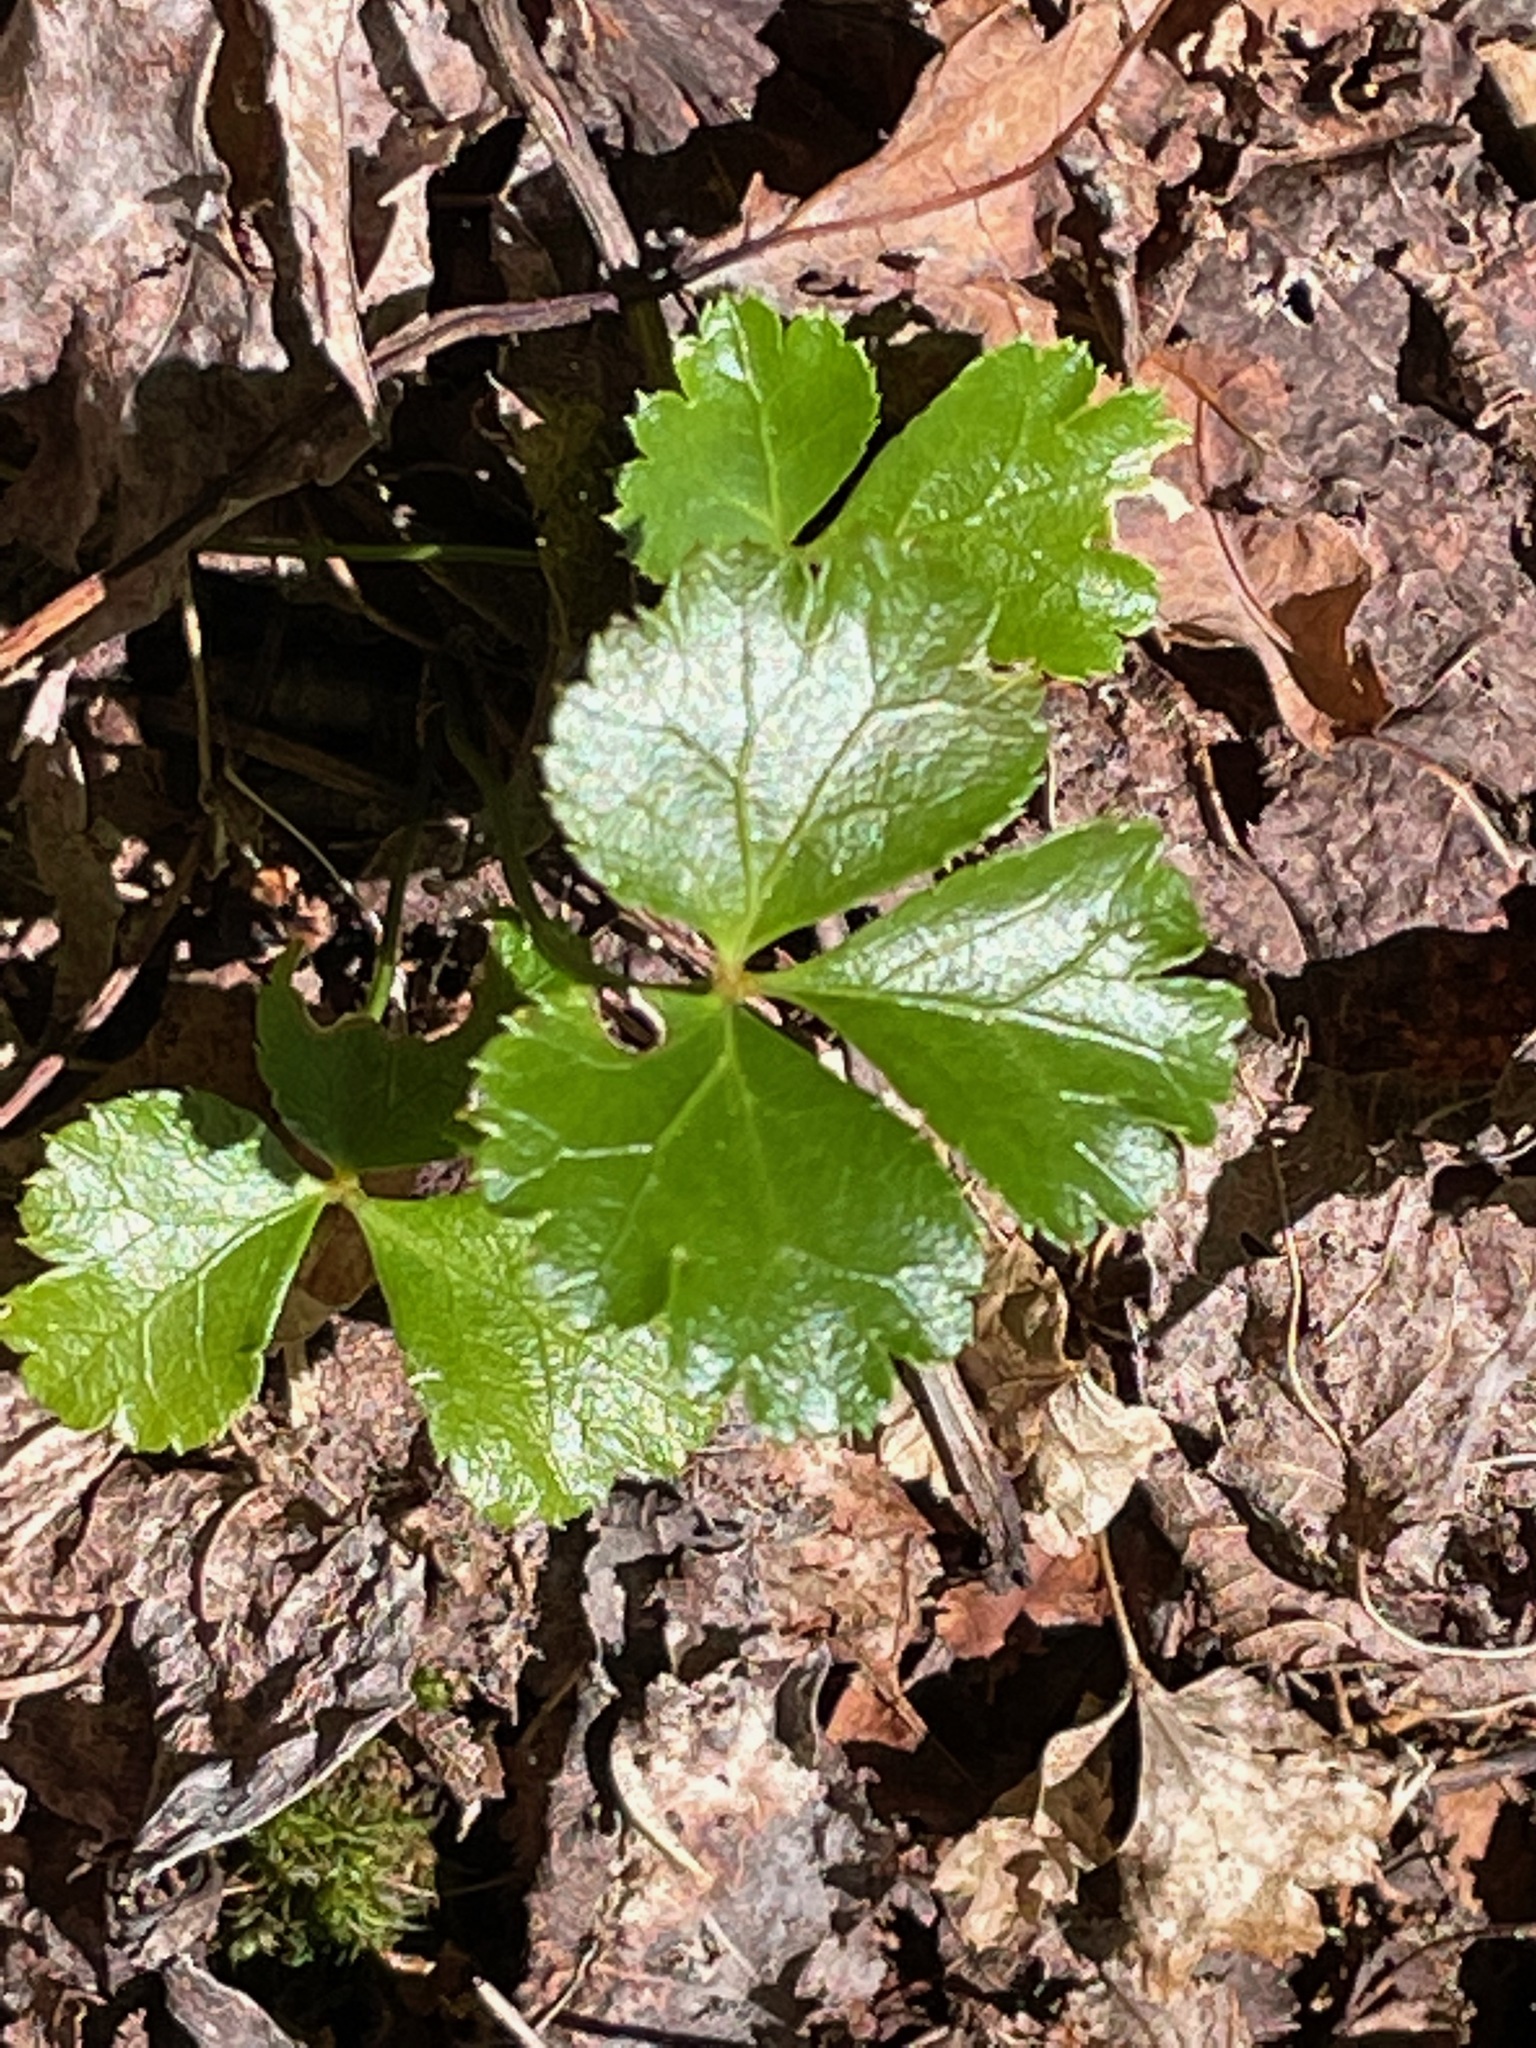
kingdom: Plantae
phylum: Tracheophyta
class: Magnoliopsida
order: Ranunculales
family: Ranunculaceae
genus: Coptis
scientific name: Coptis trifolia
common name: Canker-root
